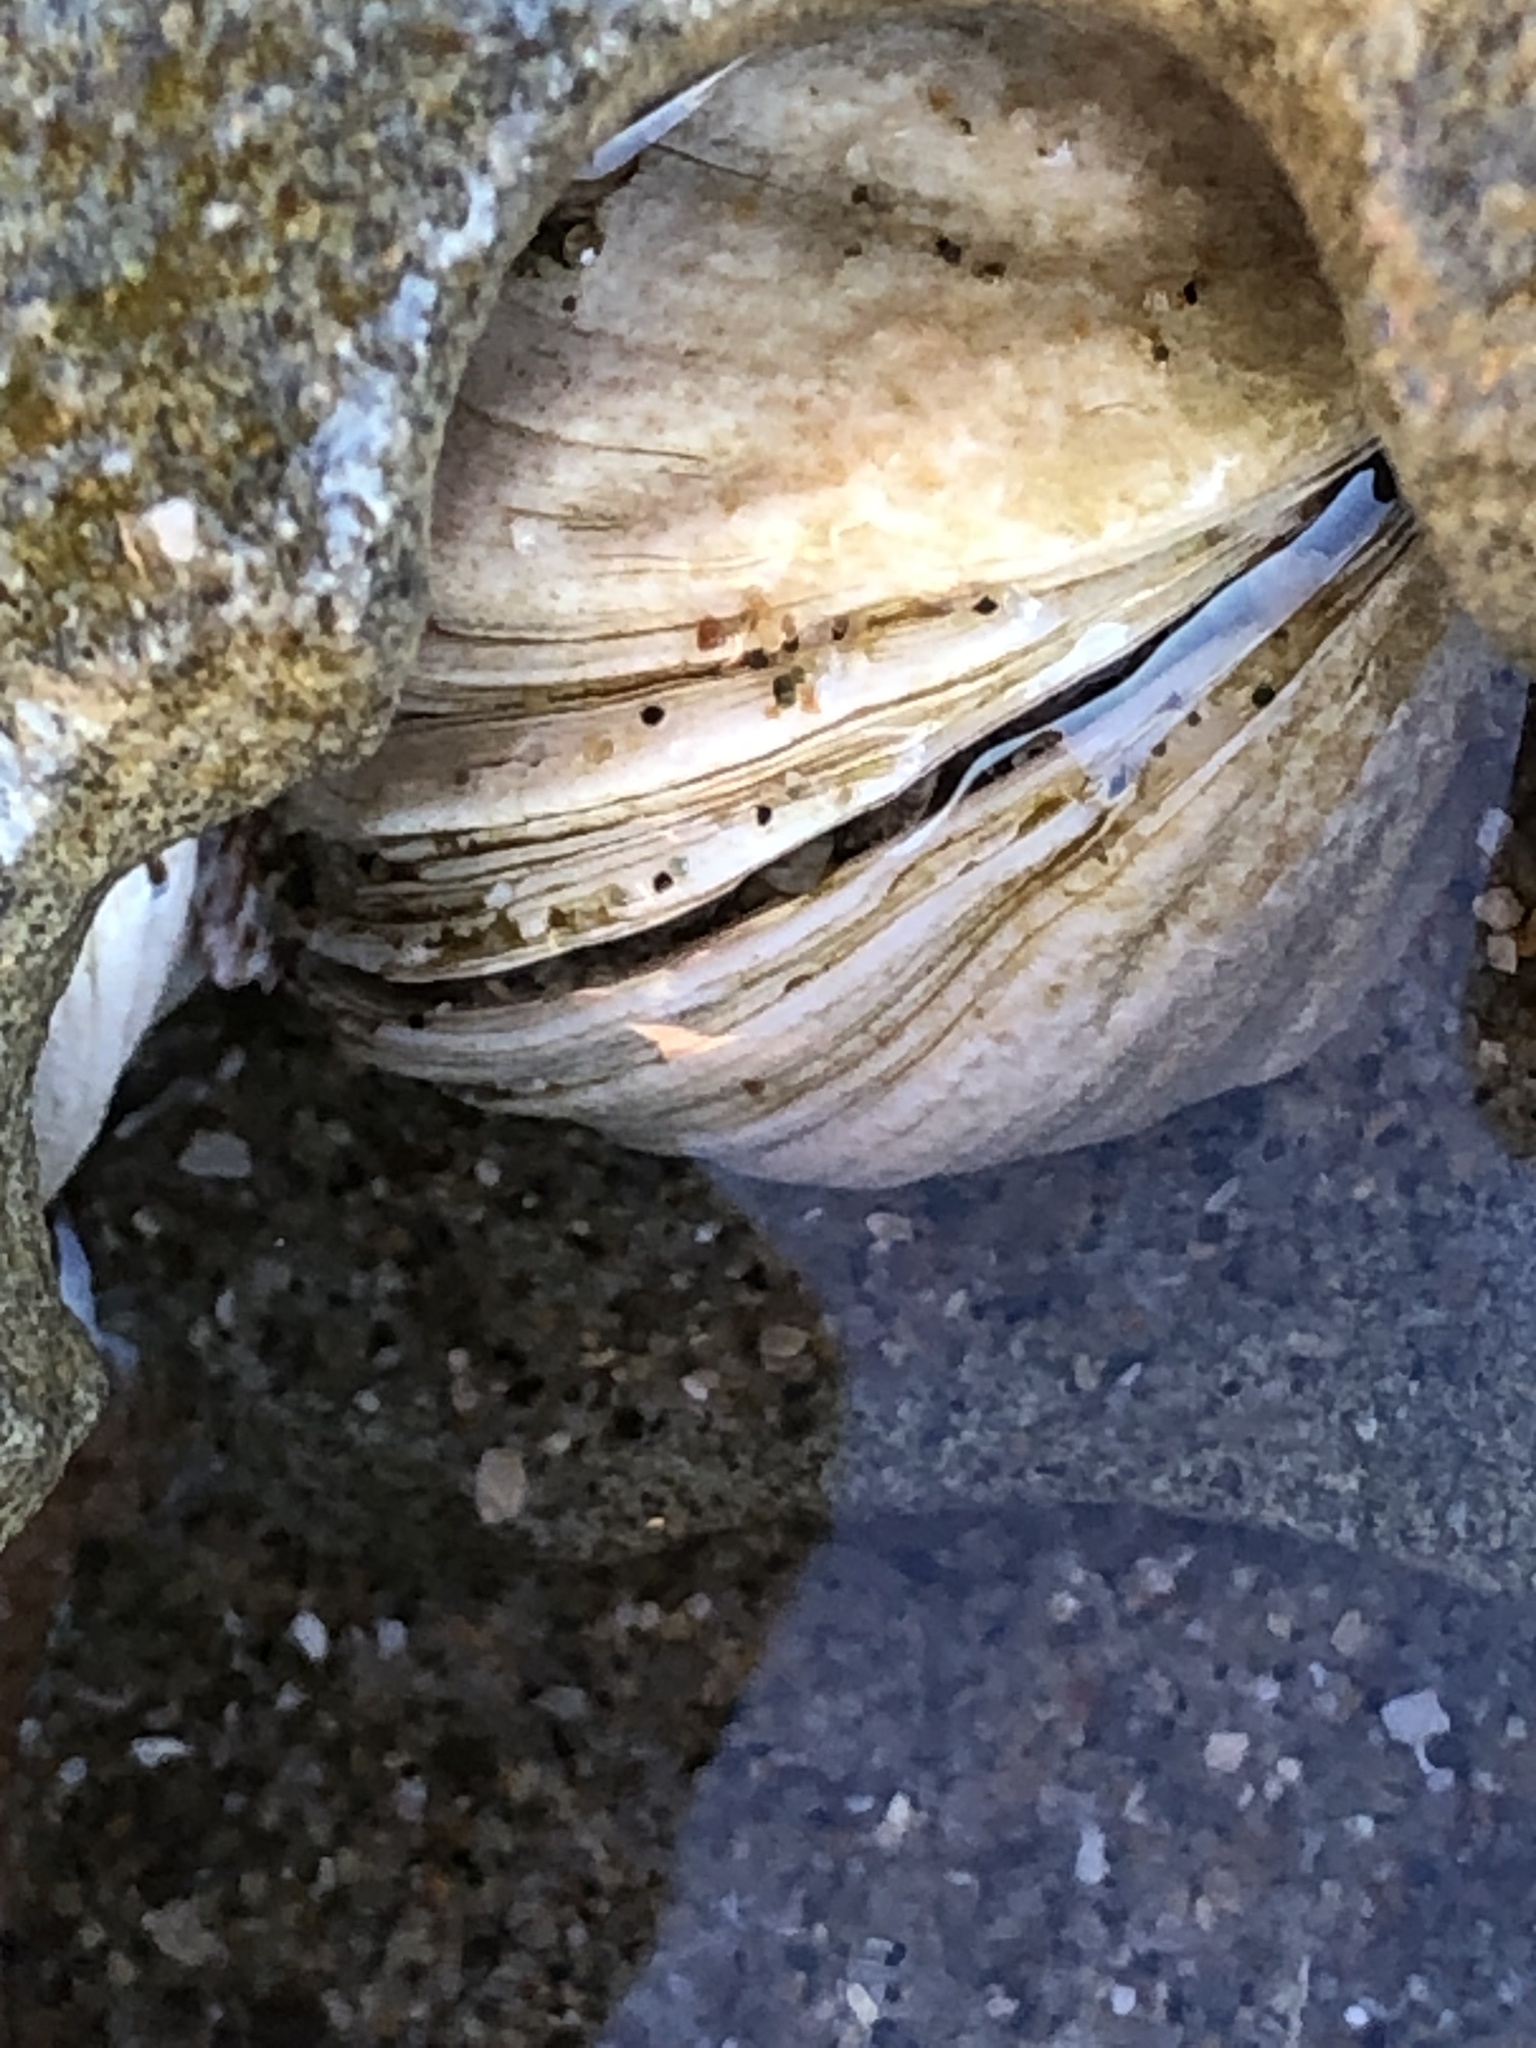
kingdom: Animalia
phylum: Mollusca
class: Bivalvia
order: Venerida
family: Veneridae
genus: Petricola
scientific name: Petricola carditoides
